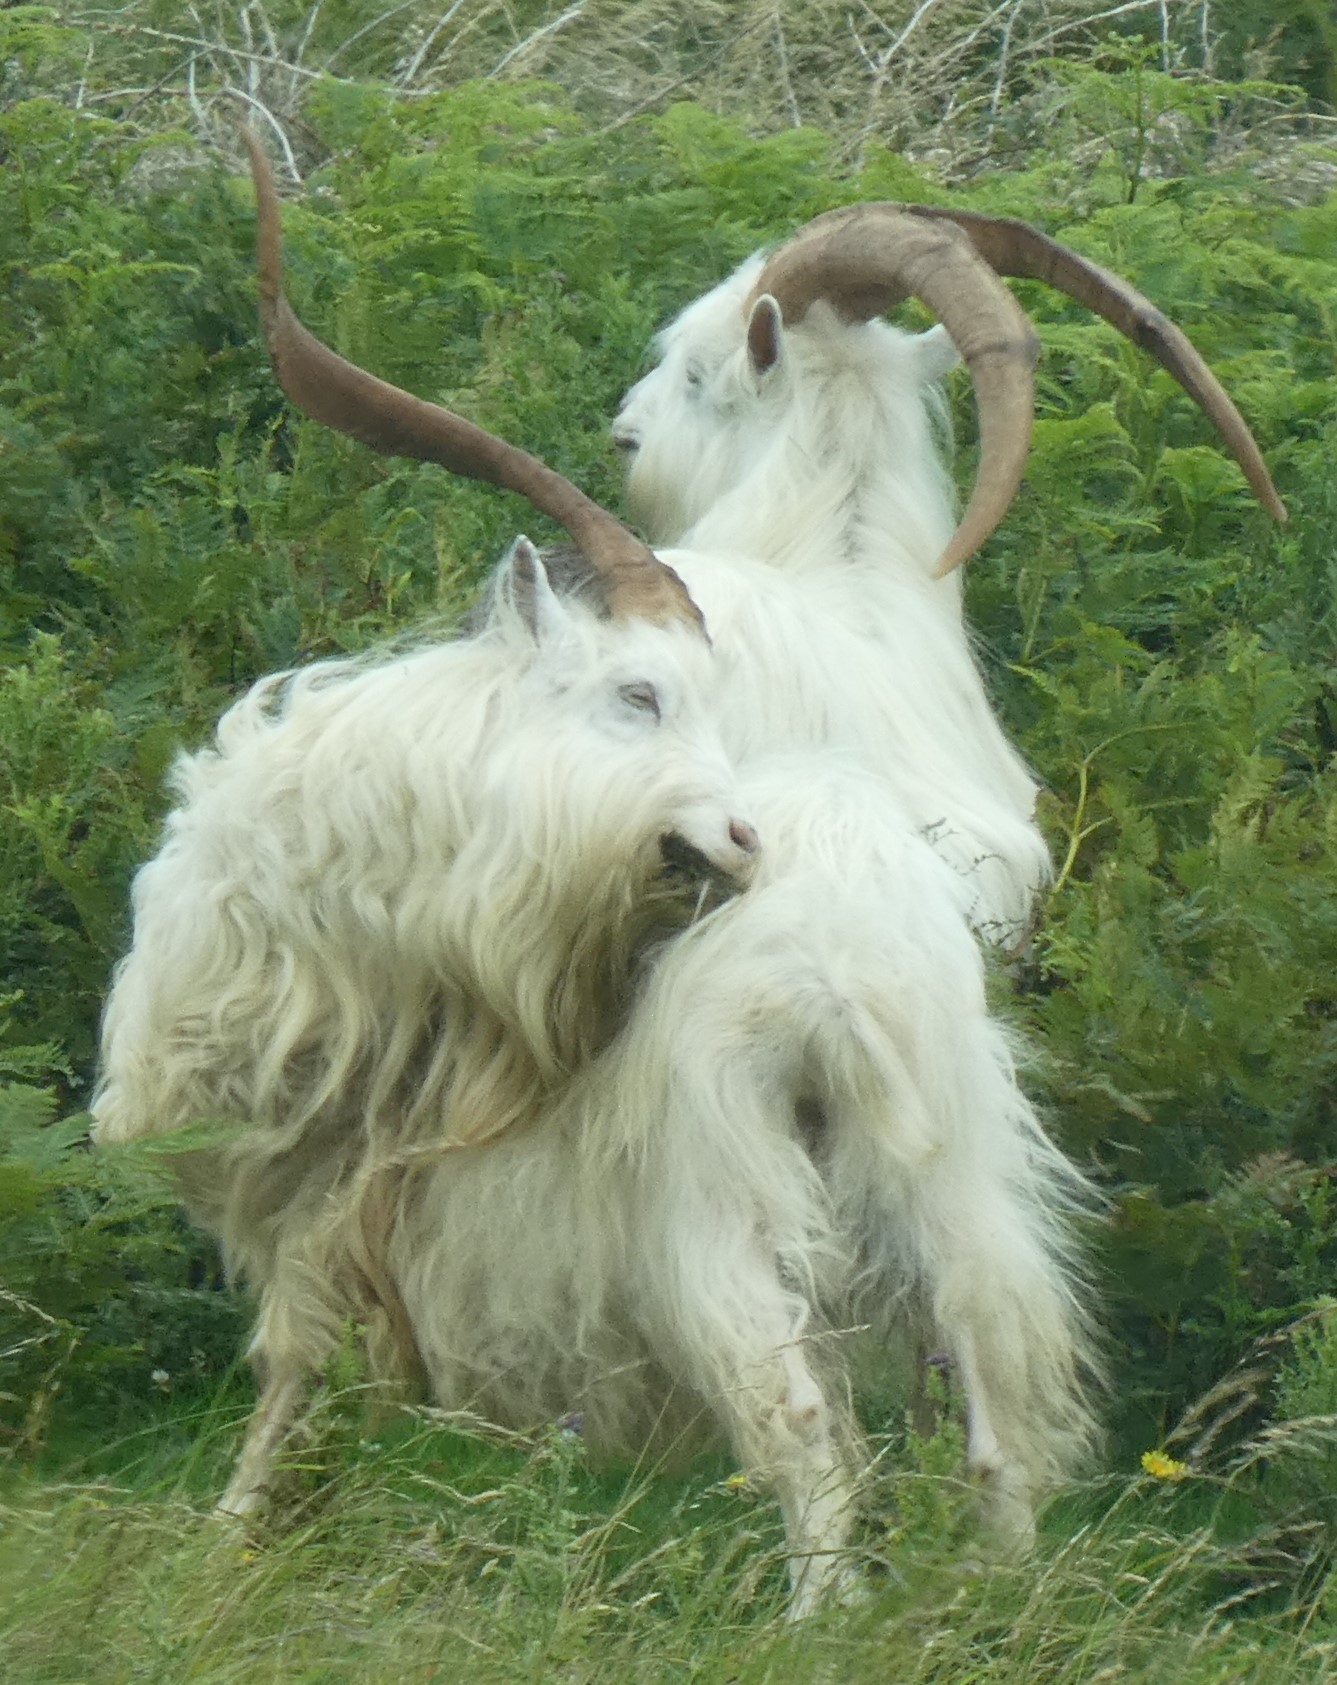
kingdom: Animalia
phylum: Chordata
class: Mammalia
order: Artiodactyla
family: Bovidae
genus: Capra
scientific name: Capra hircus
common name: Domestic goat
